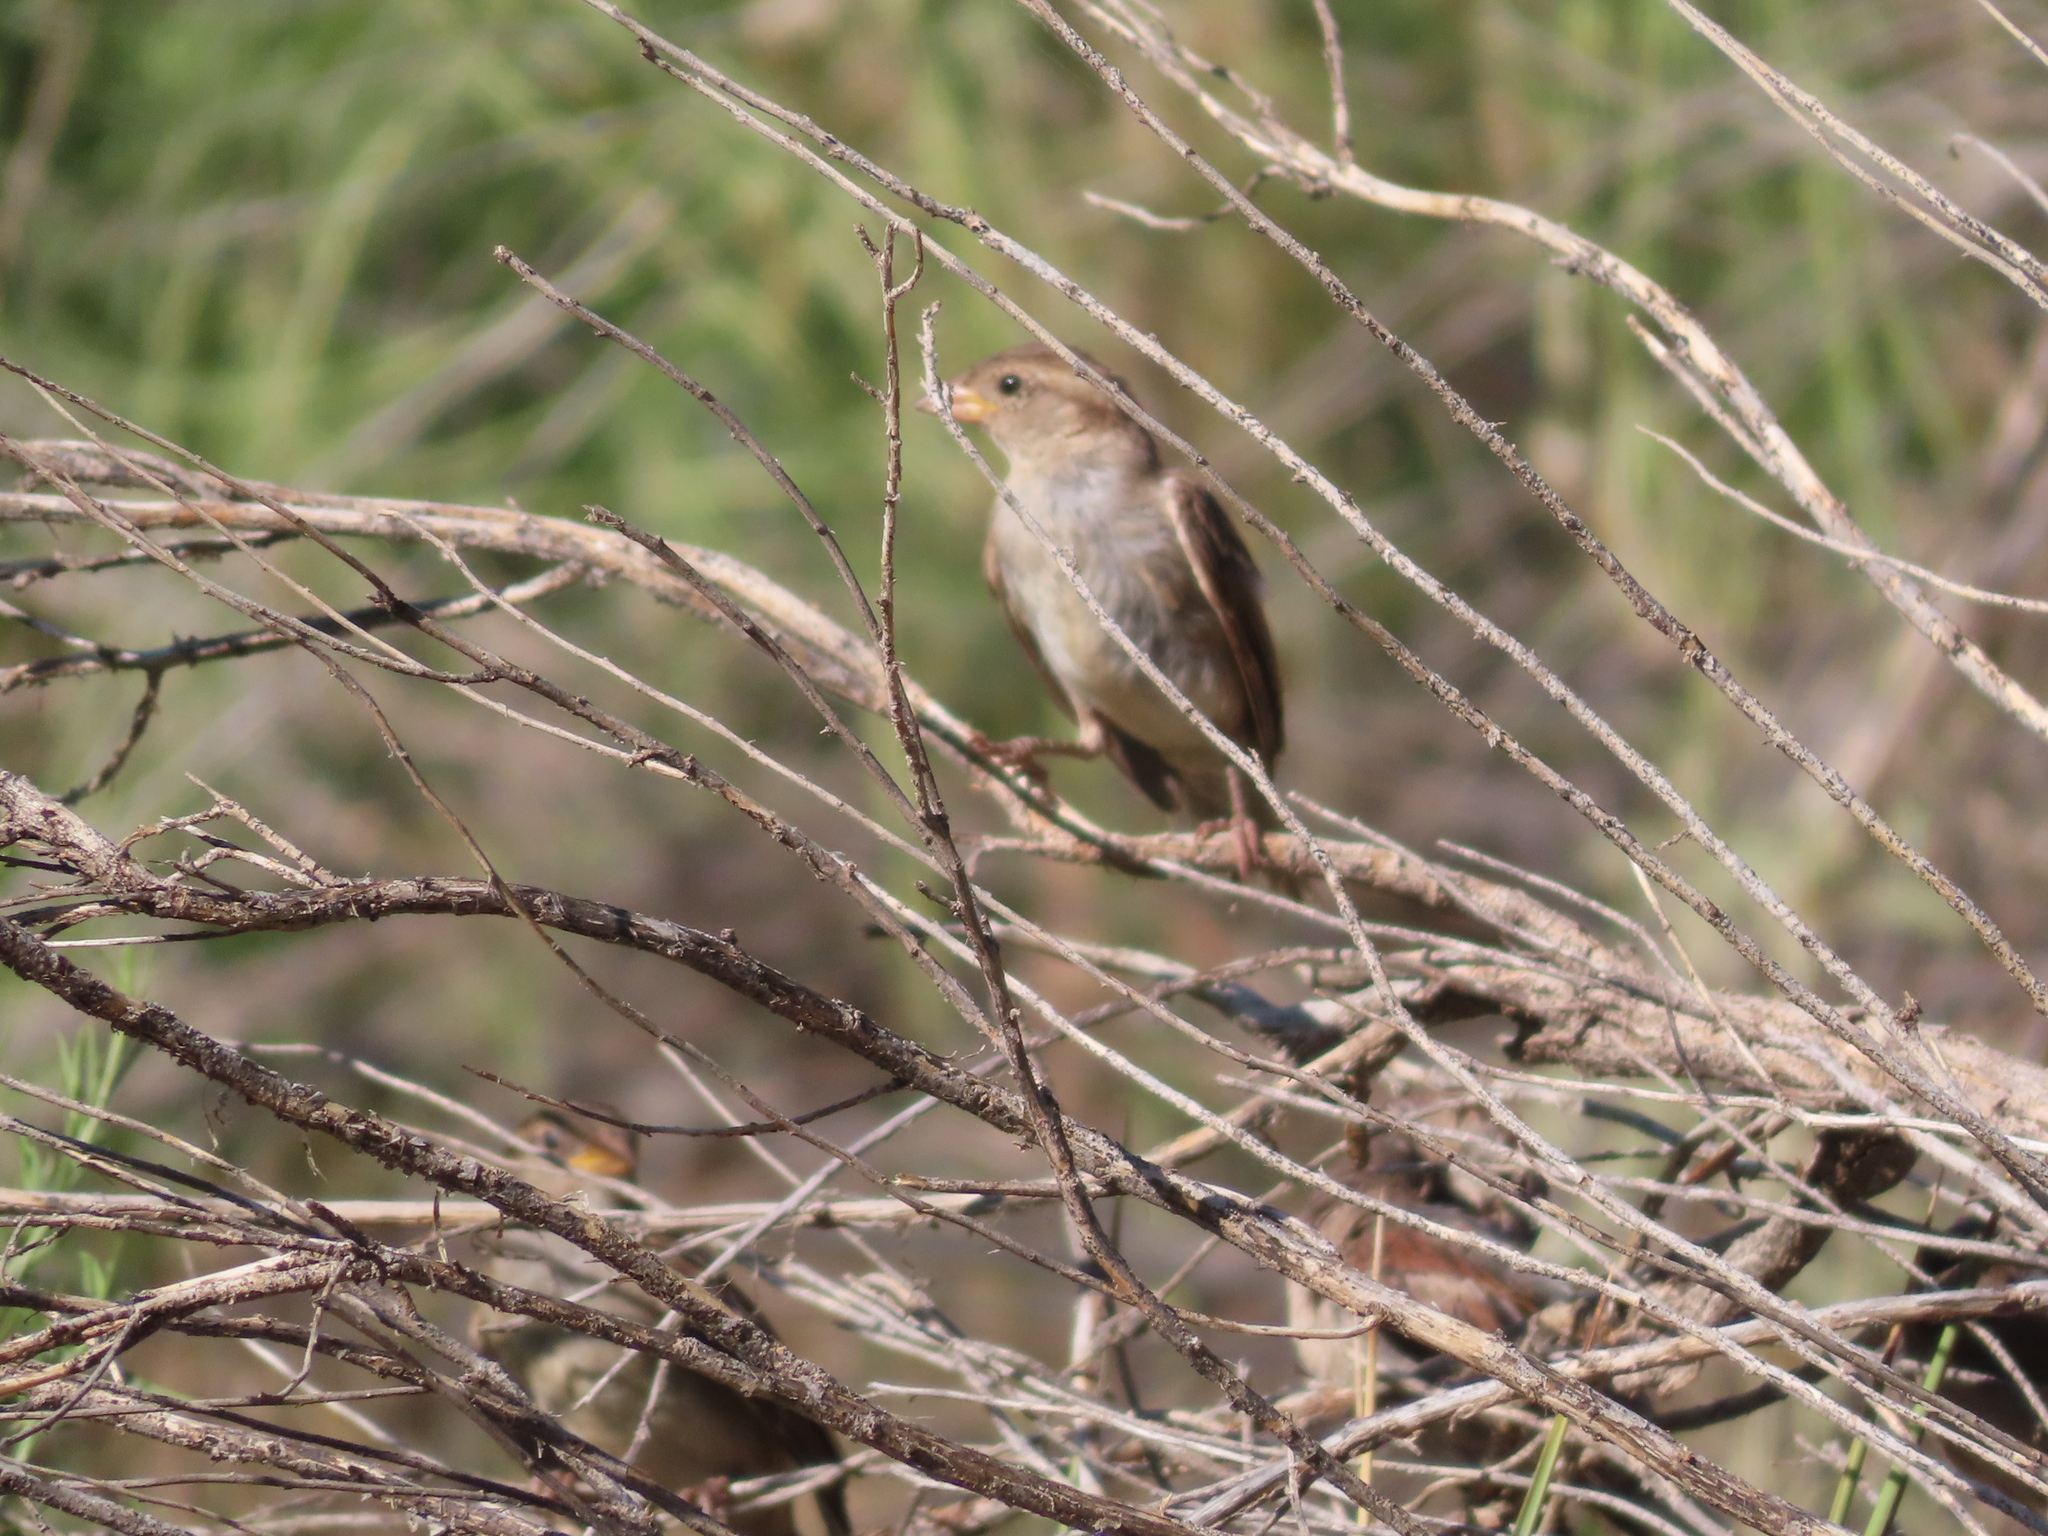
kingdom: Animalia
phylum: Chordata
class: Aves
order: Passeriformes
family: Passeridae
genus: Passer
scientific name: Passer domesticus
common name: House sparrow
